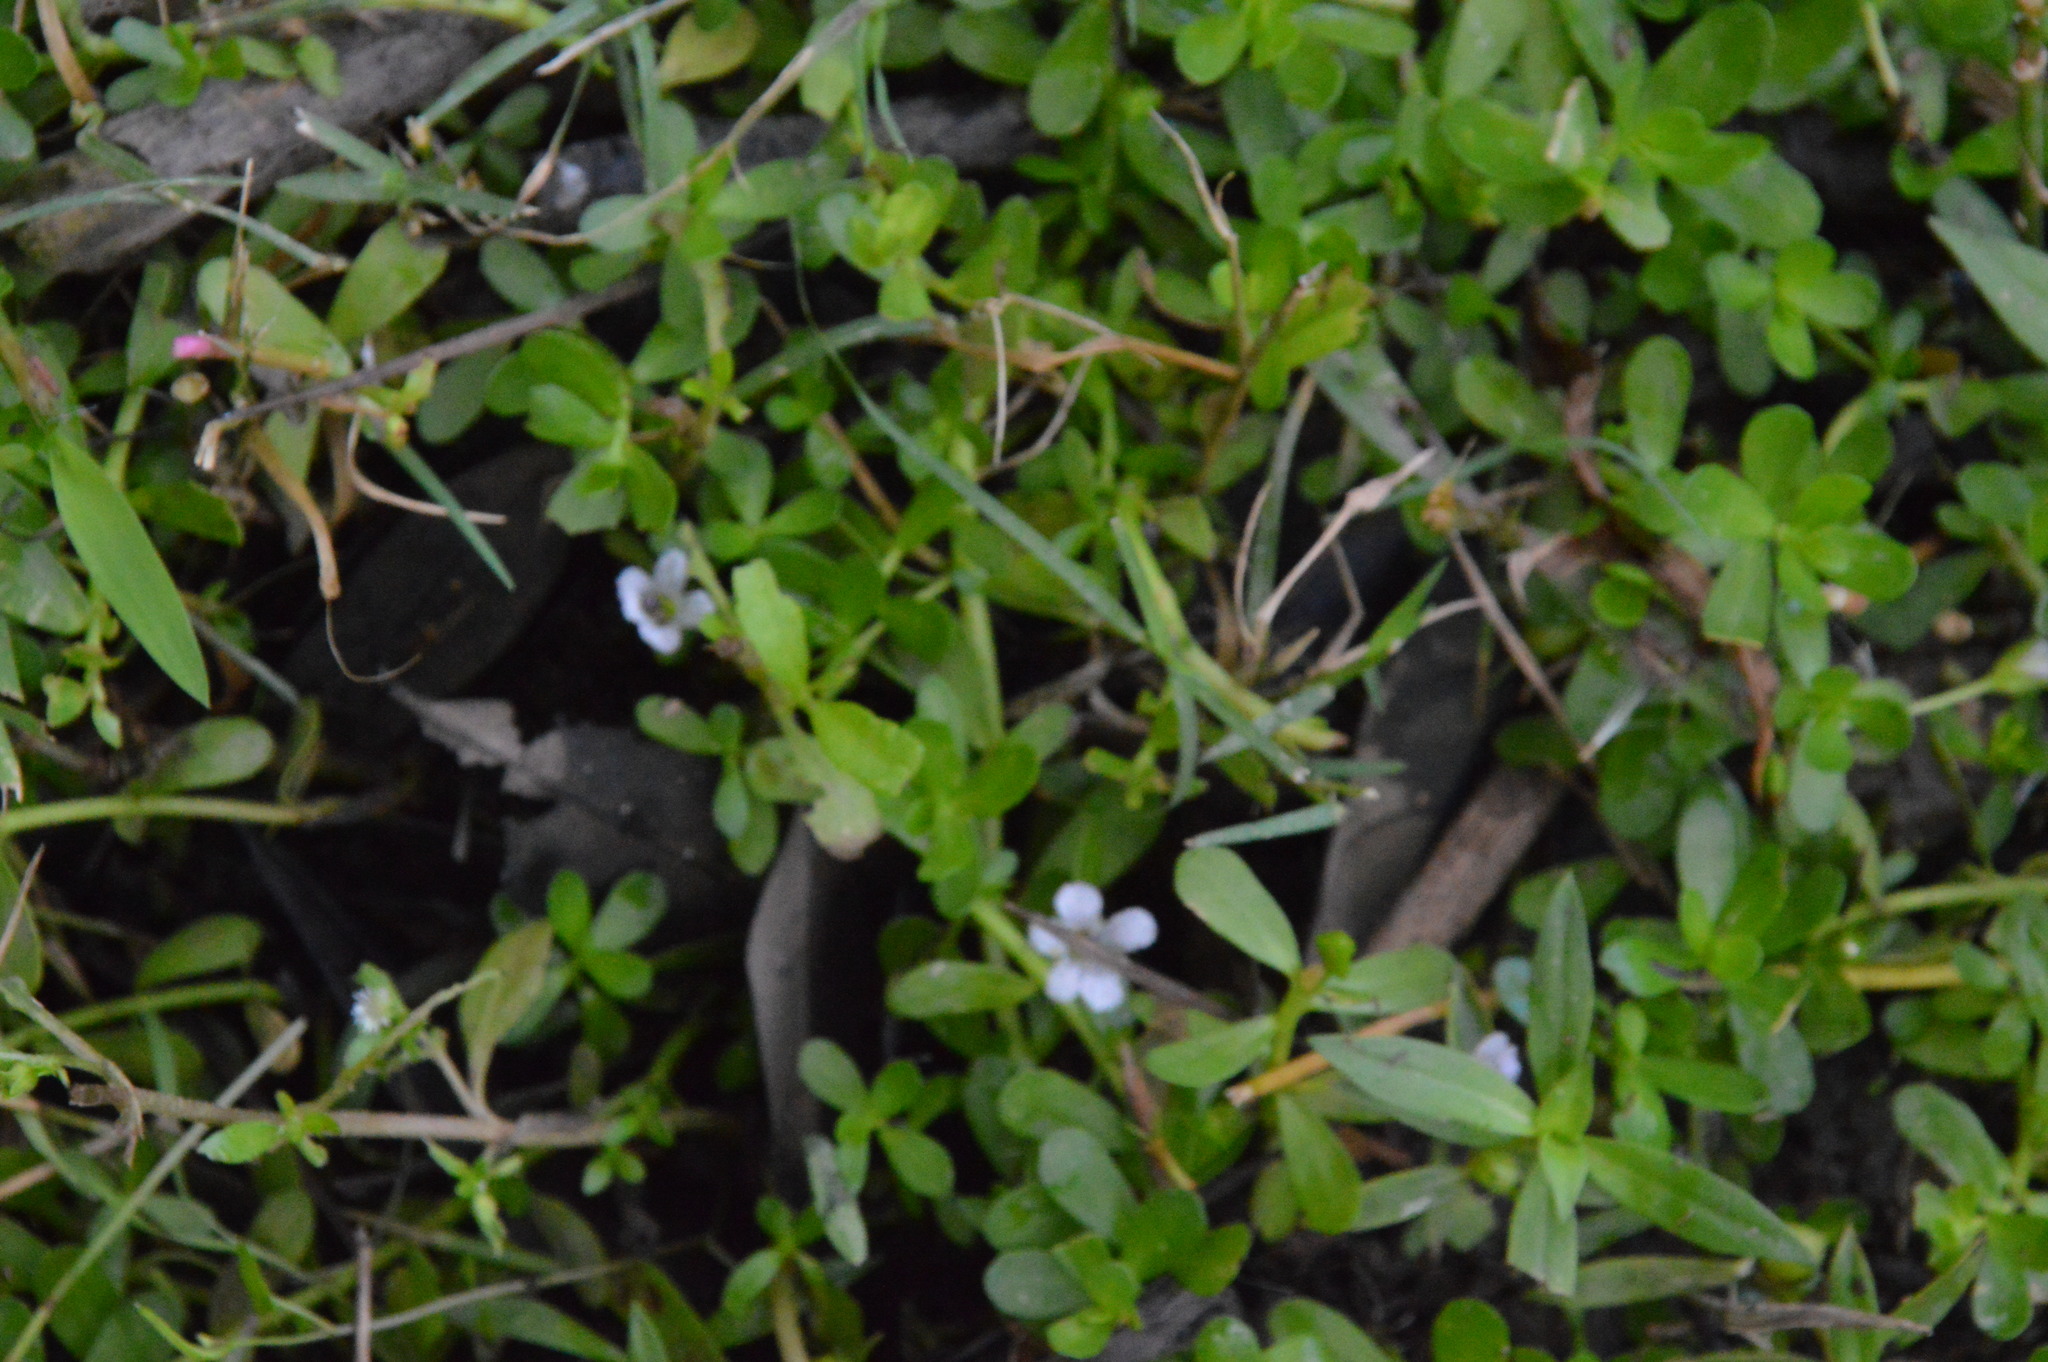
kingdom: Plantae
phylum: Tracheophyta
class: Magnoliopsida
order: Lamiales
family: Plantaginaceae
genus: Bacopa
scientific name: Bacopa monnieri
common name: Indian-pennywort
